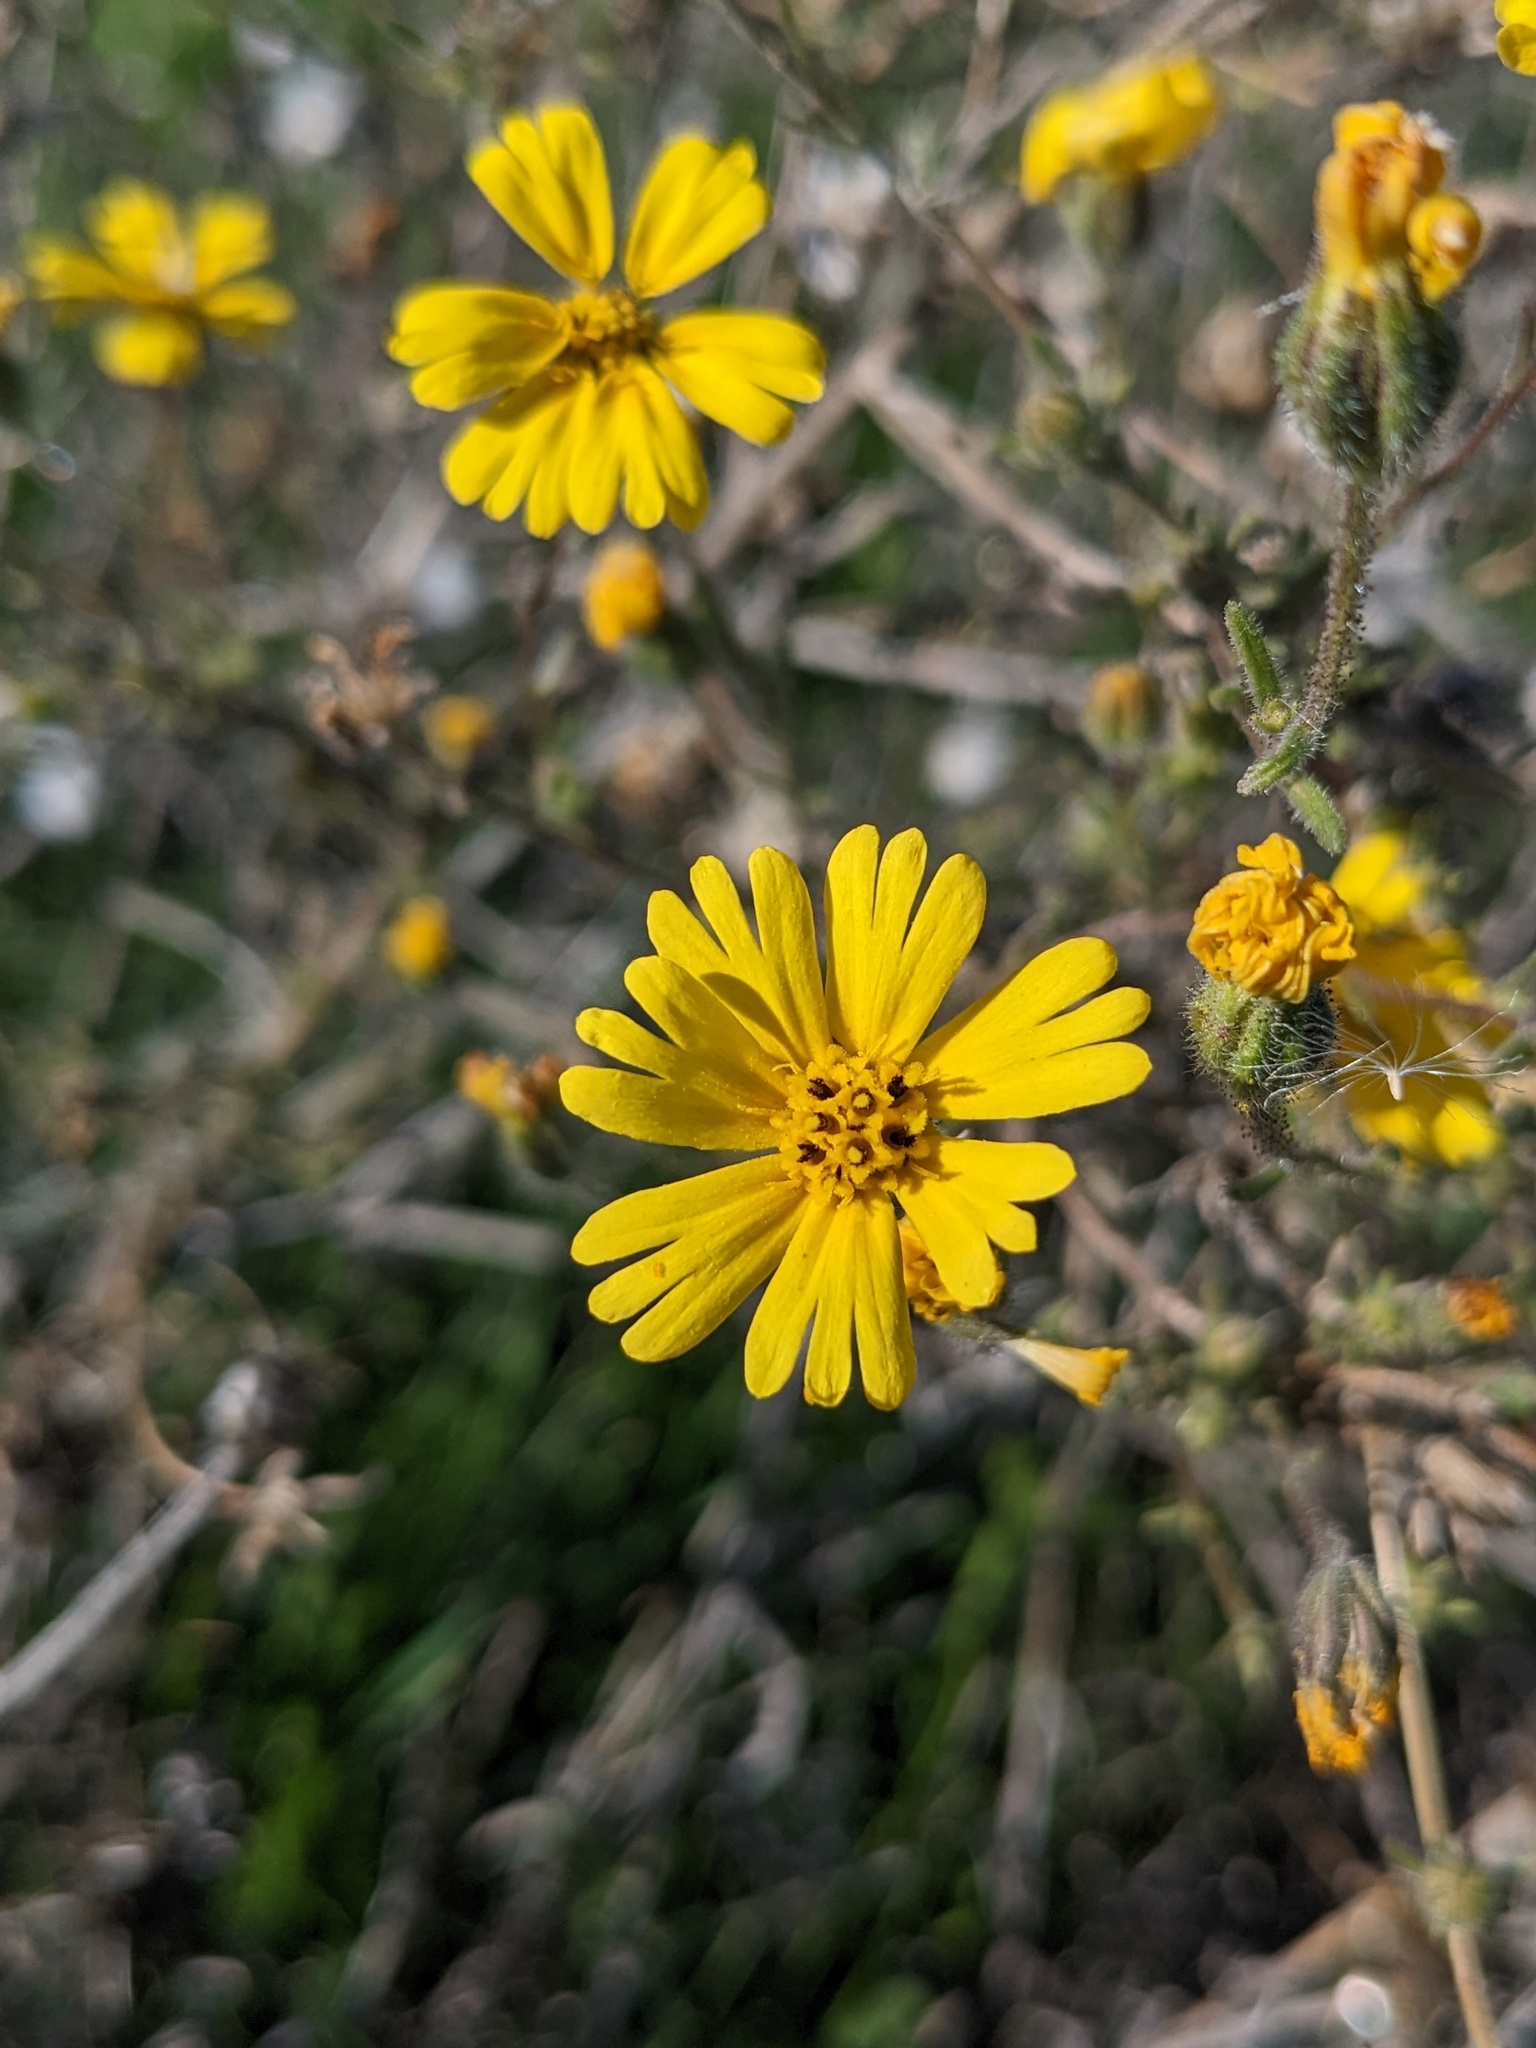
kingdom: Plantae
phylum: Tracheophyta
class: Magnoliopsida
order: Asterales
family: Asteraceae
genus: Madia
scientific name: Madia elegans
